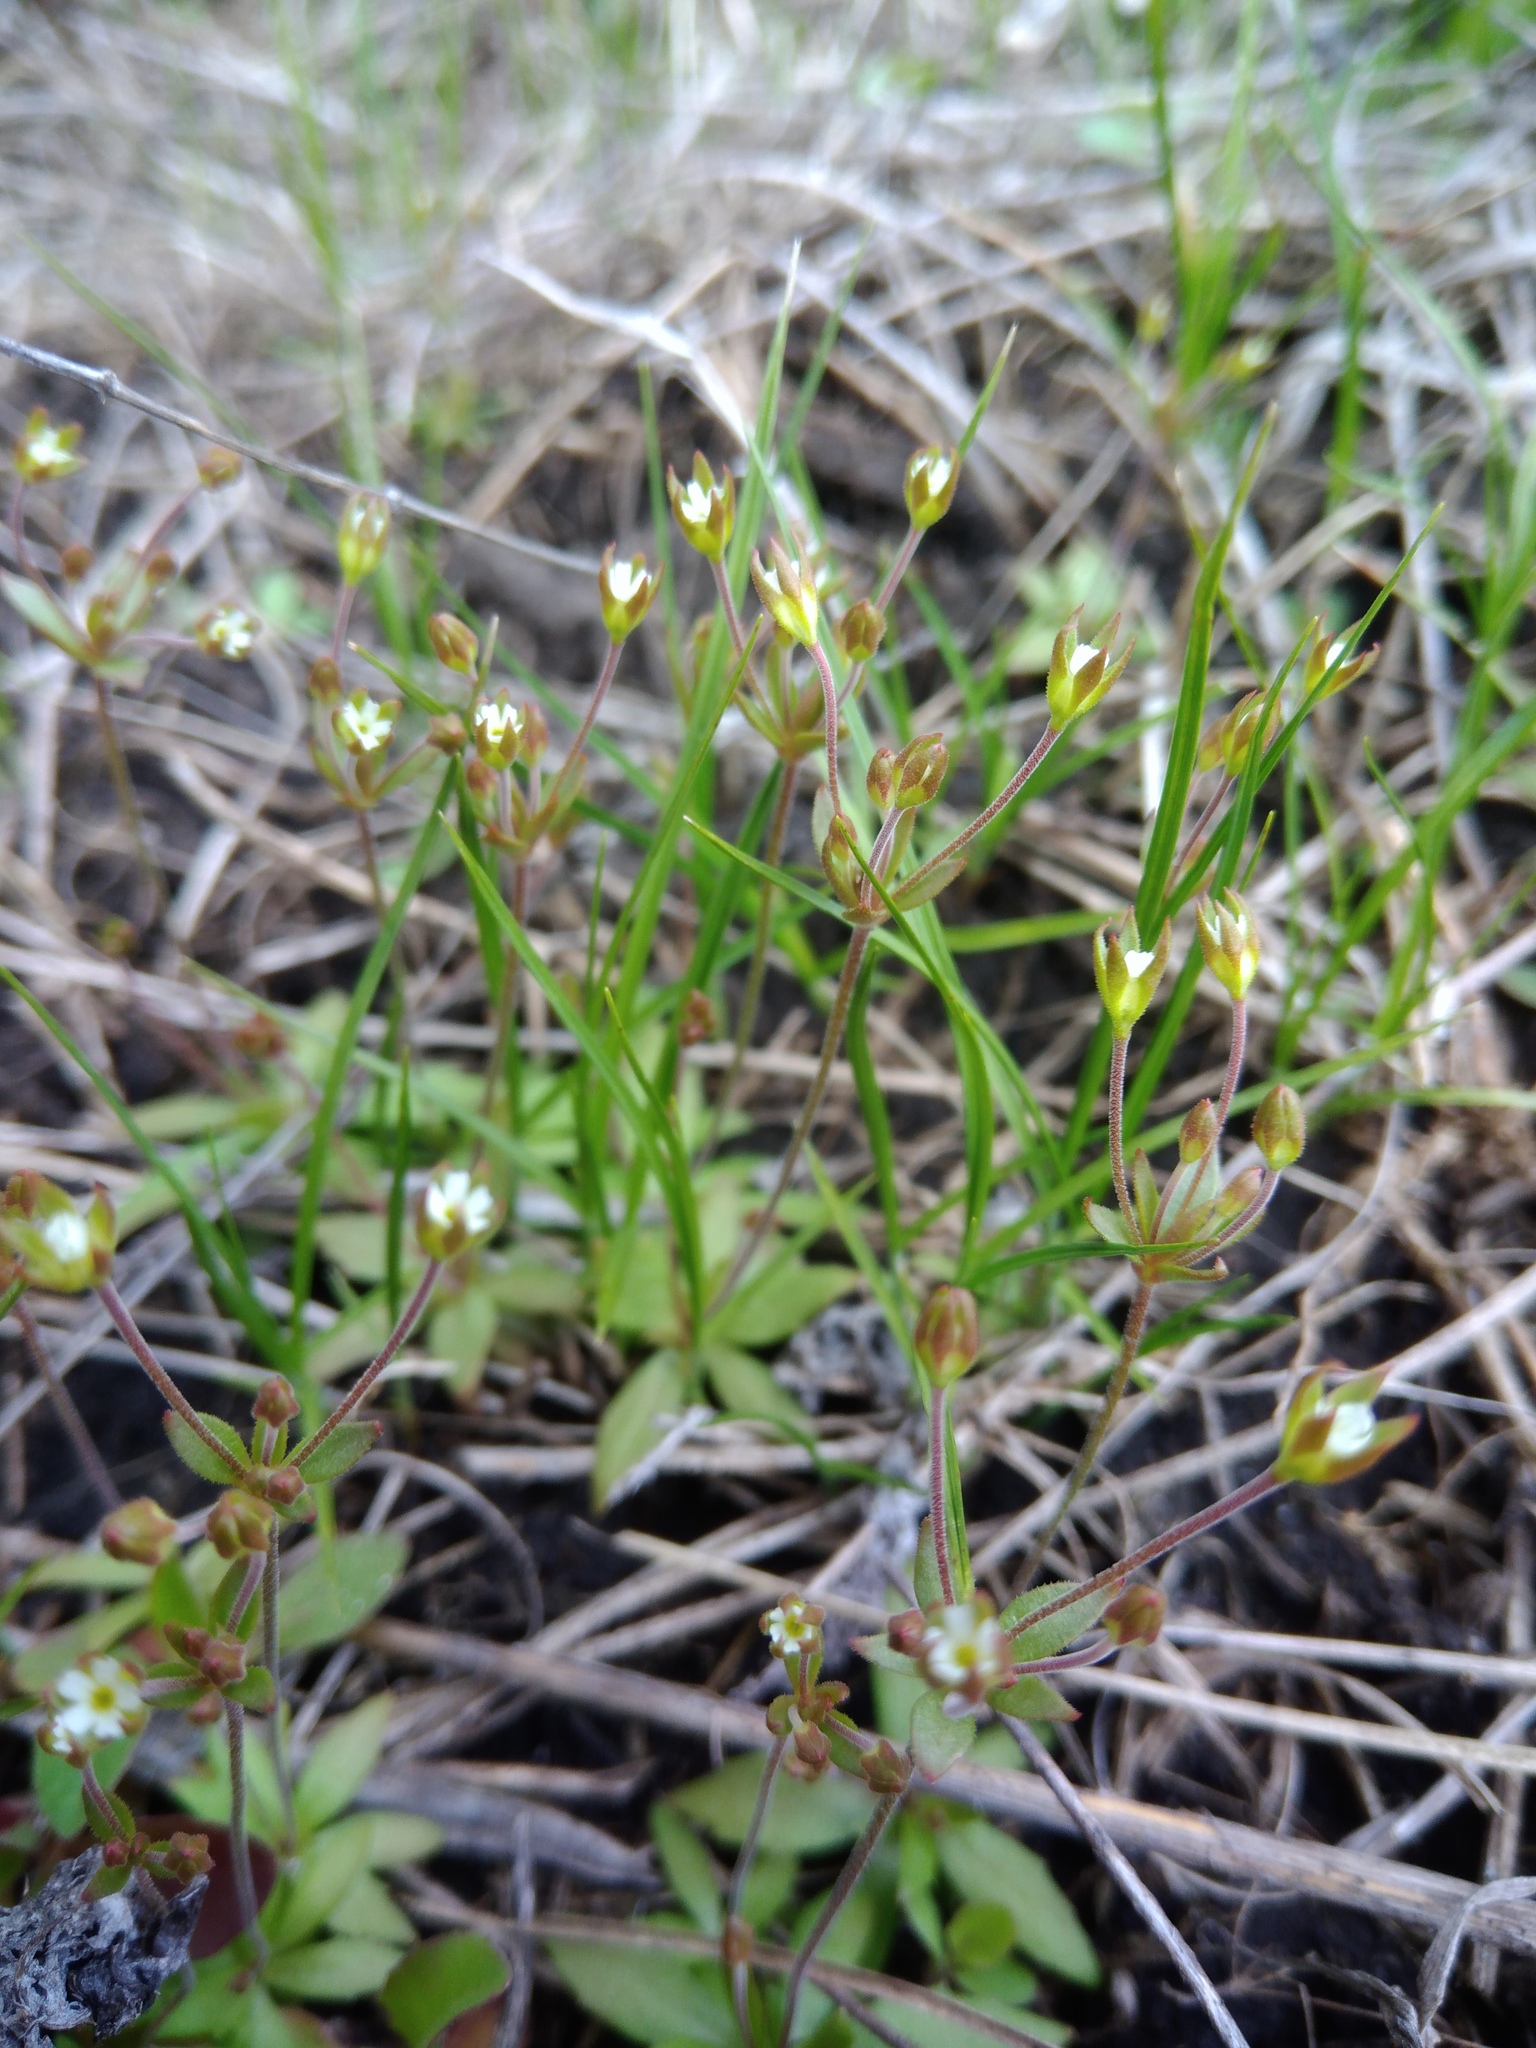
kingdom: Plantae
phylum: Tracheophyta
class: Magnoliopsida
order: Ericales
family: Primulaceae
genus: Androsace
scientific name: Androsace elongata
